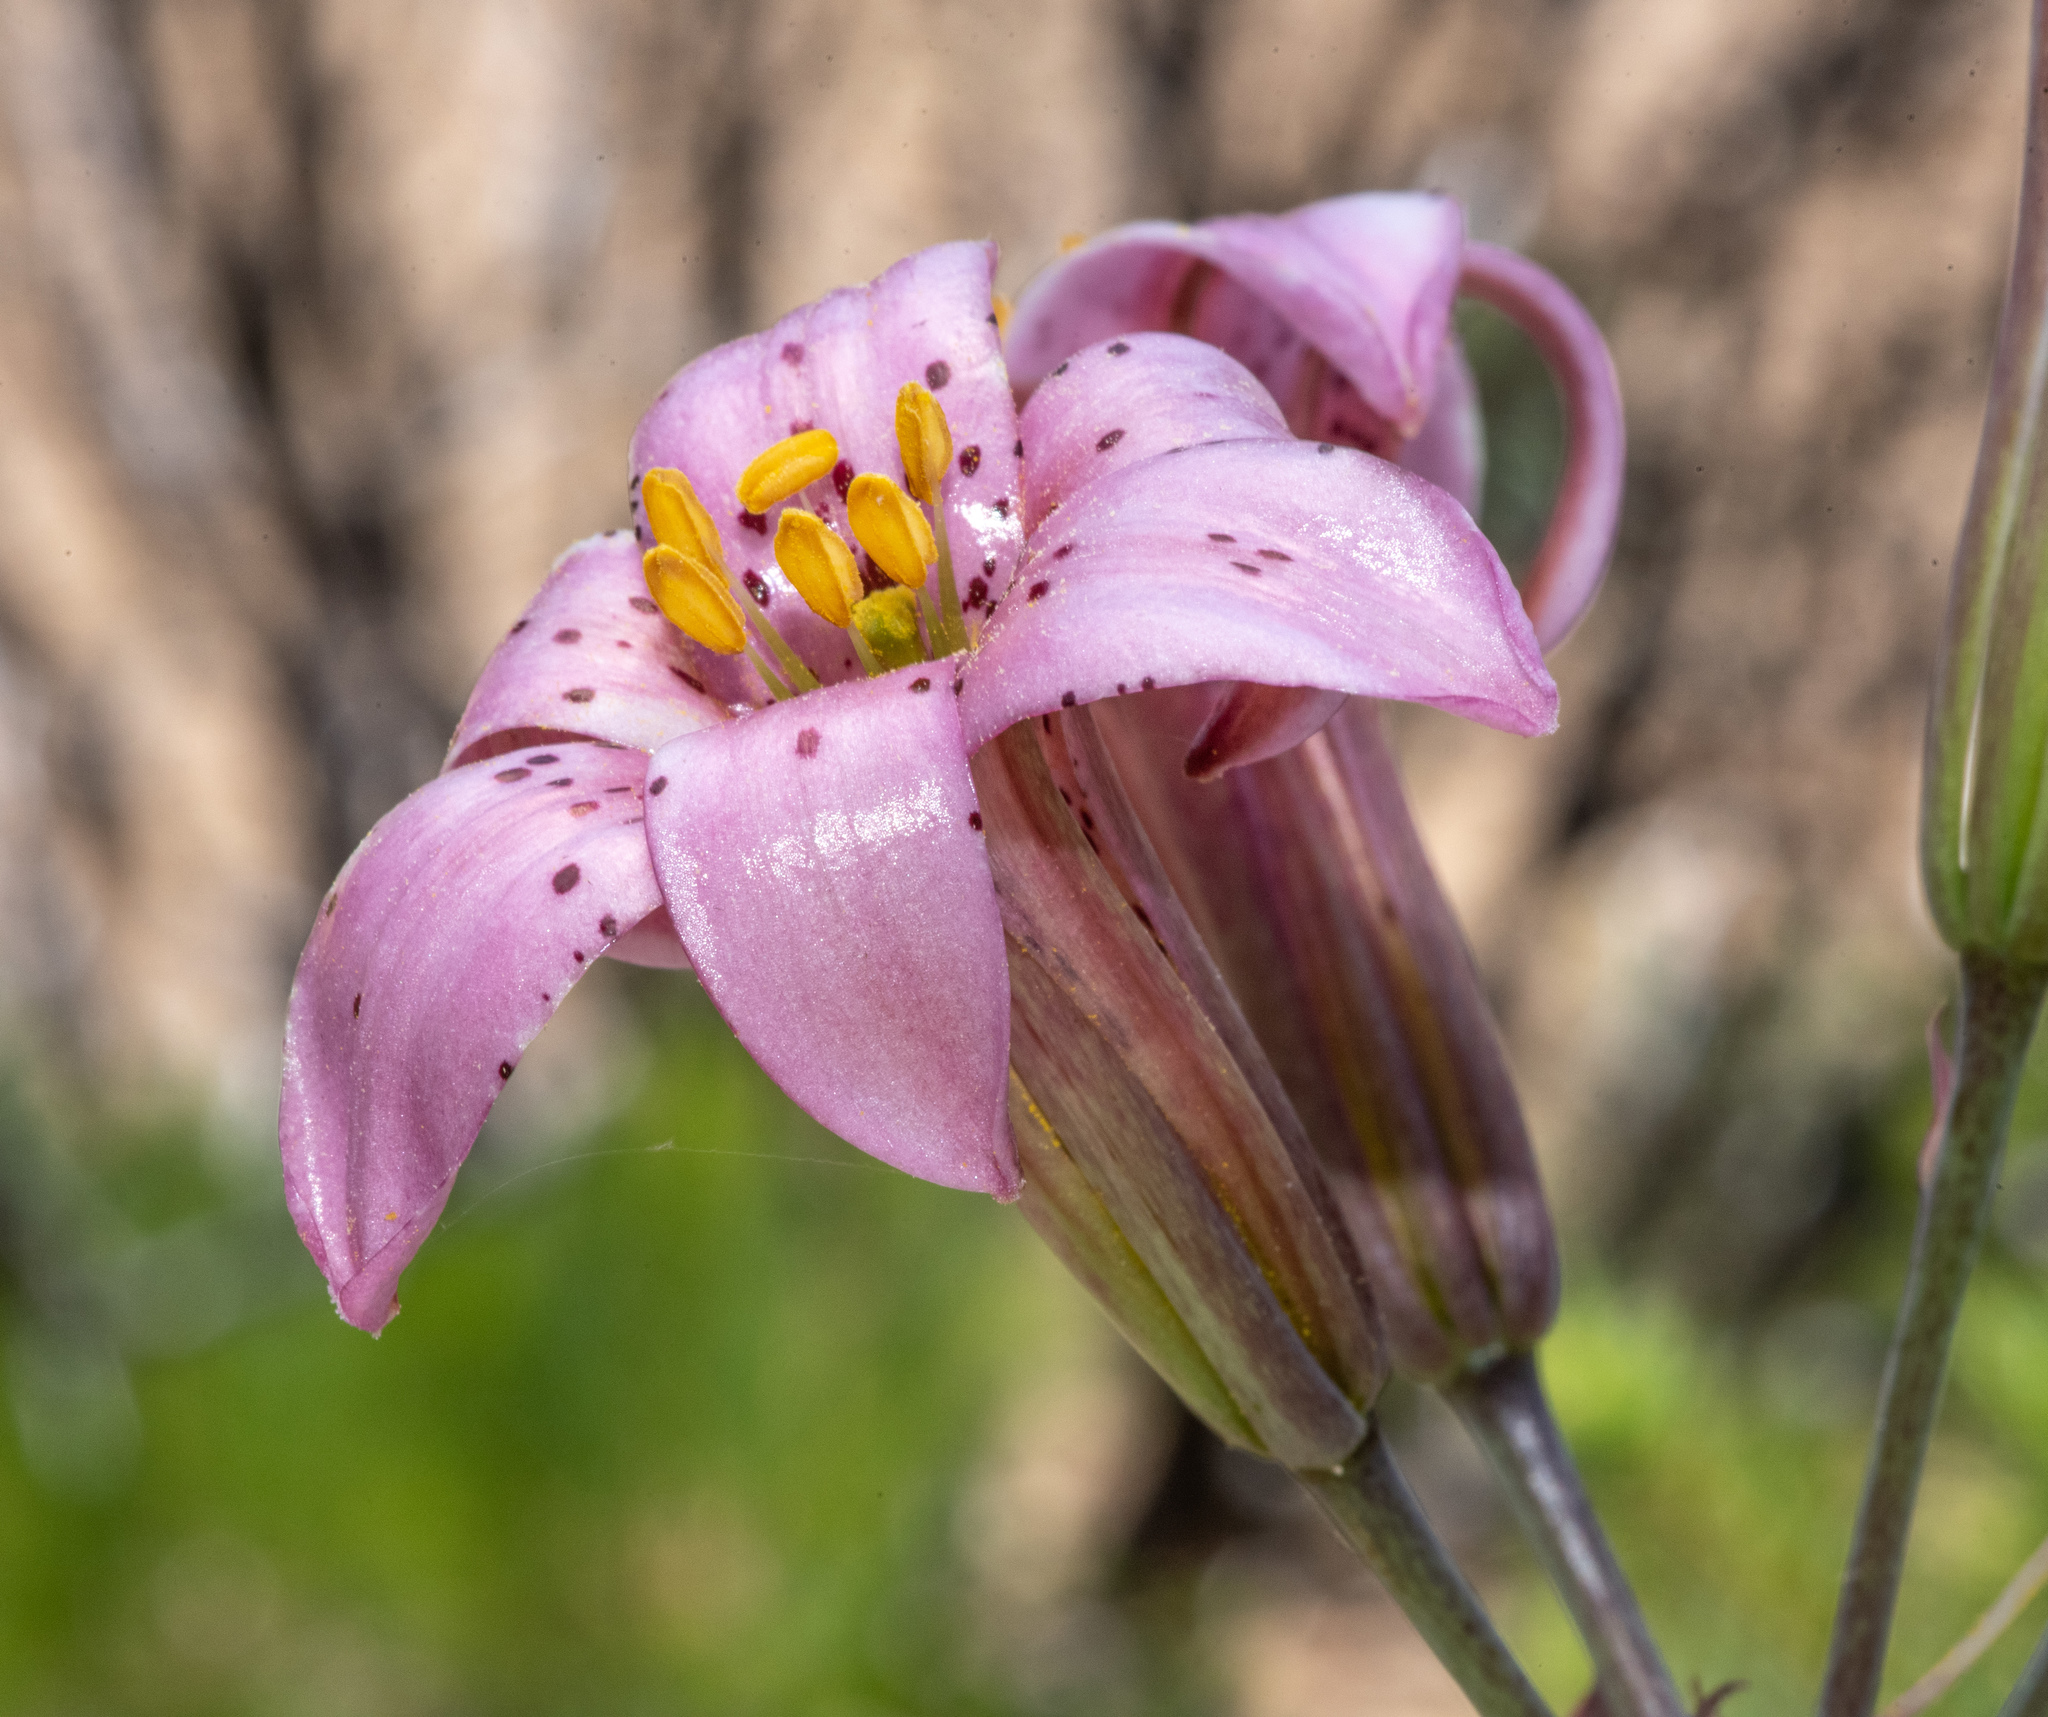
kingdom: Plantae
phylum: Tracheophyta
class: Liliopsida
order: Liliales
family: Liliaceae
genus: Lilium
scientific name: Lilium rubescens
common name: Chamise lily
